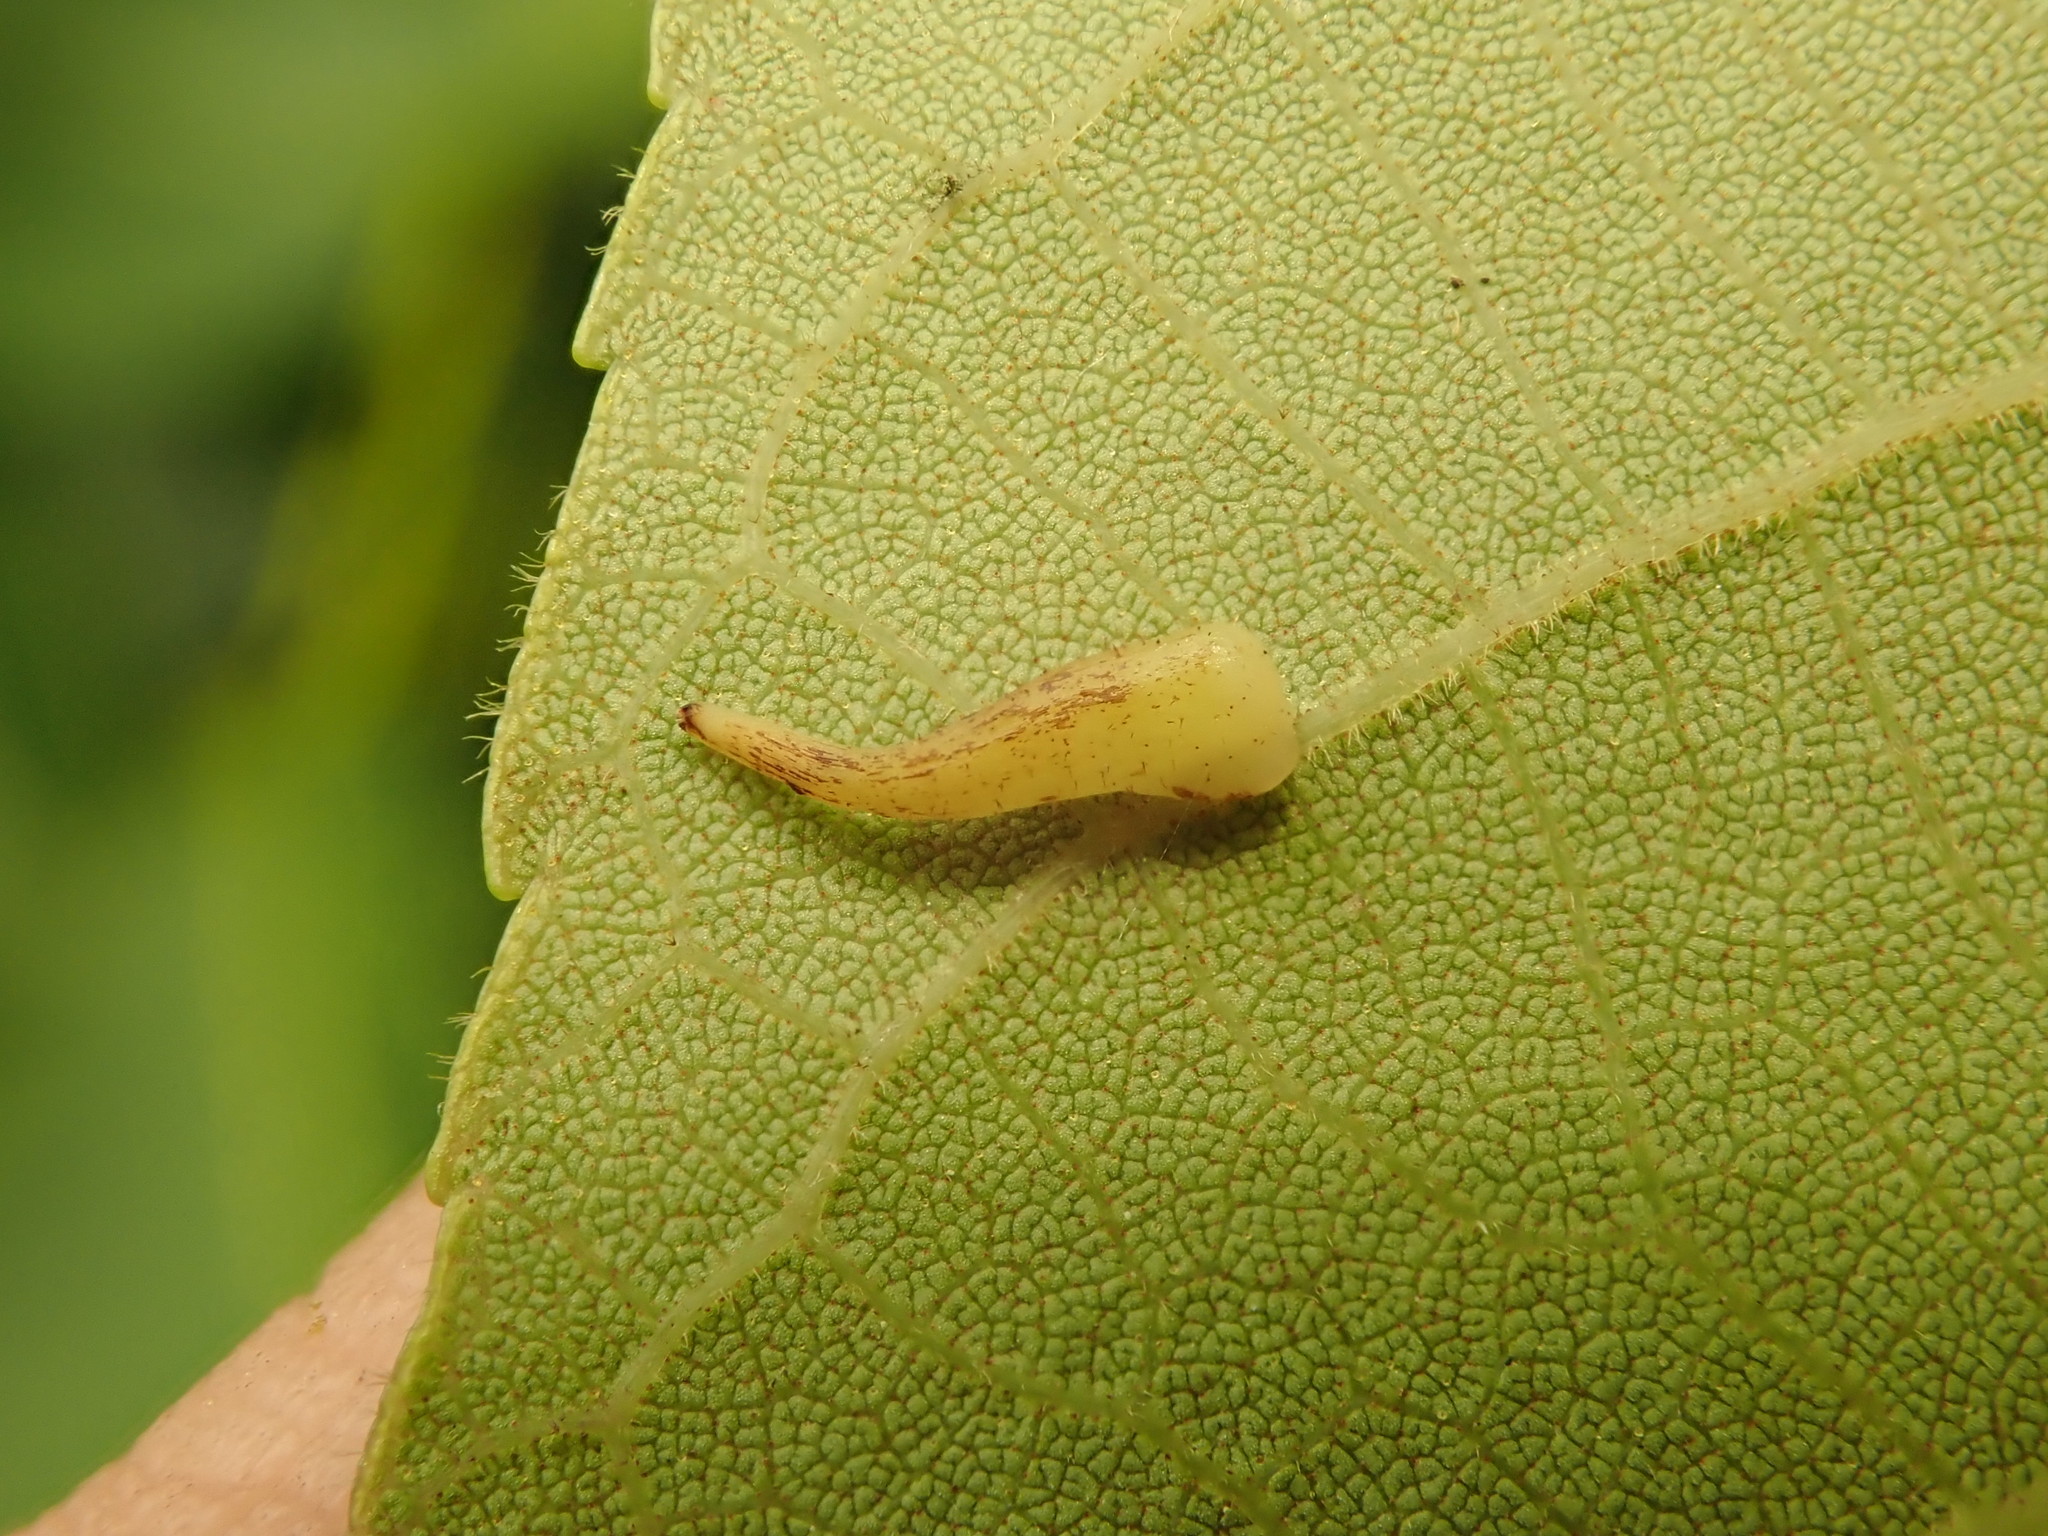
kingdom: Animalia
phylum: Arthropoda
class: Insecta
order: Diptera
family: Cecidomyiidae
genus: Caryomyia
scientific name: Caryomyia procumbens
